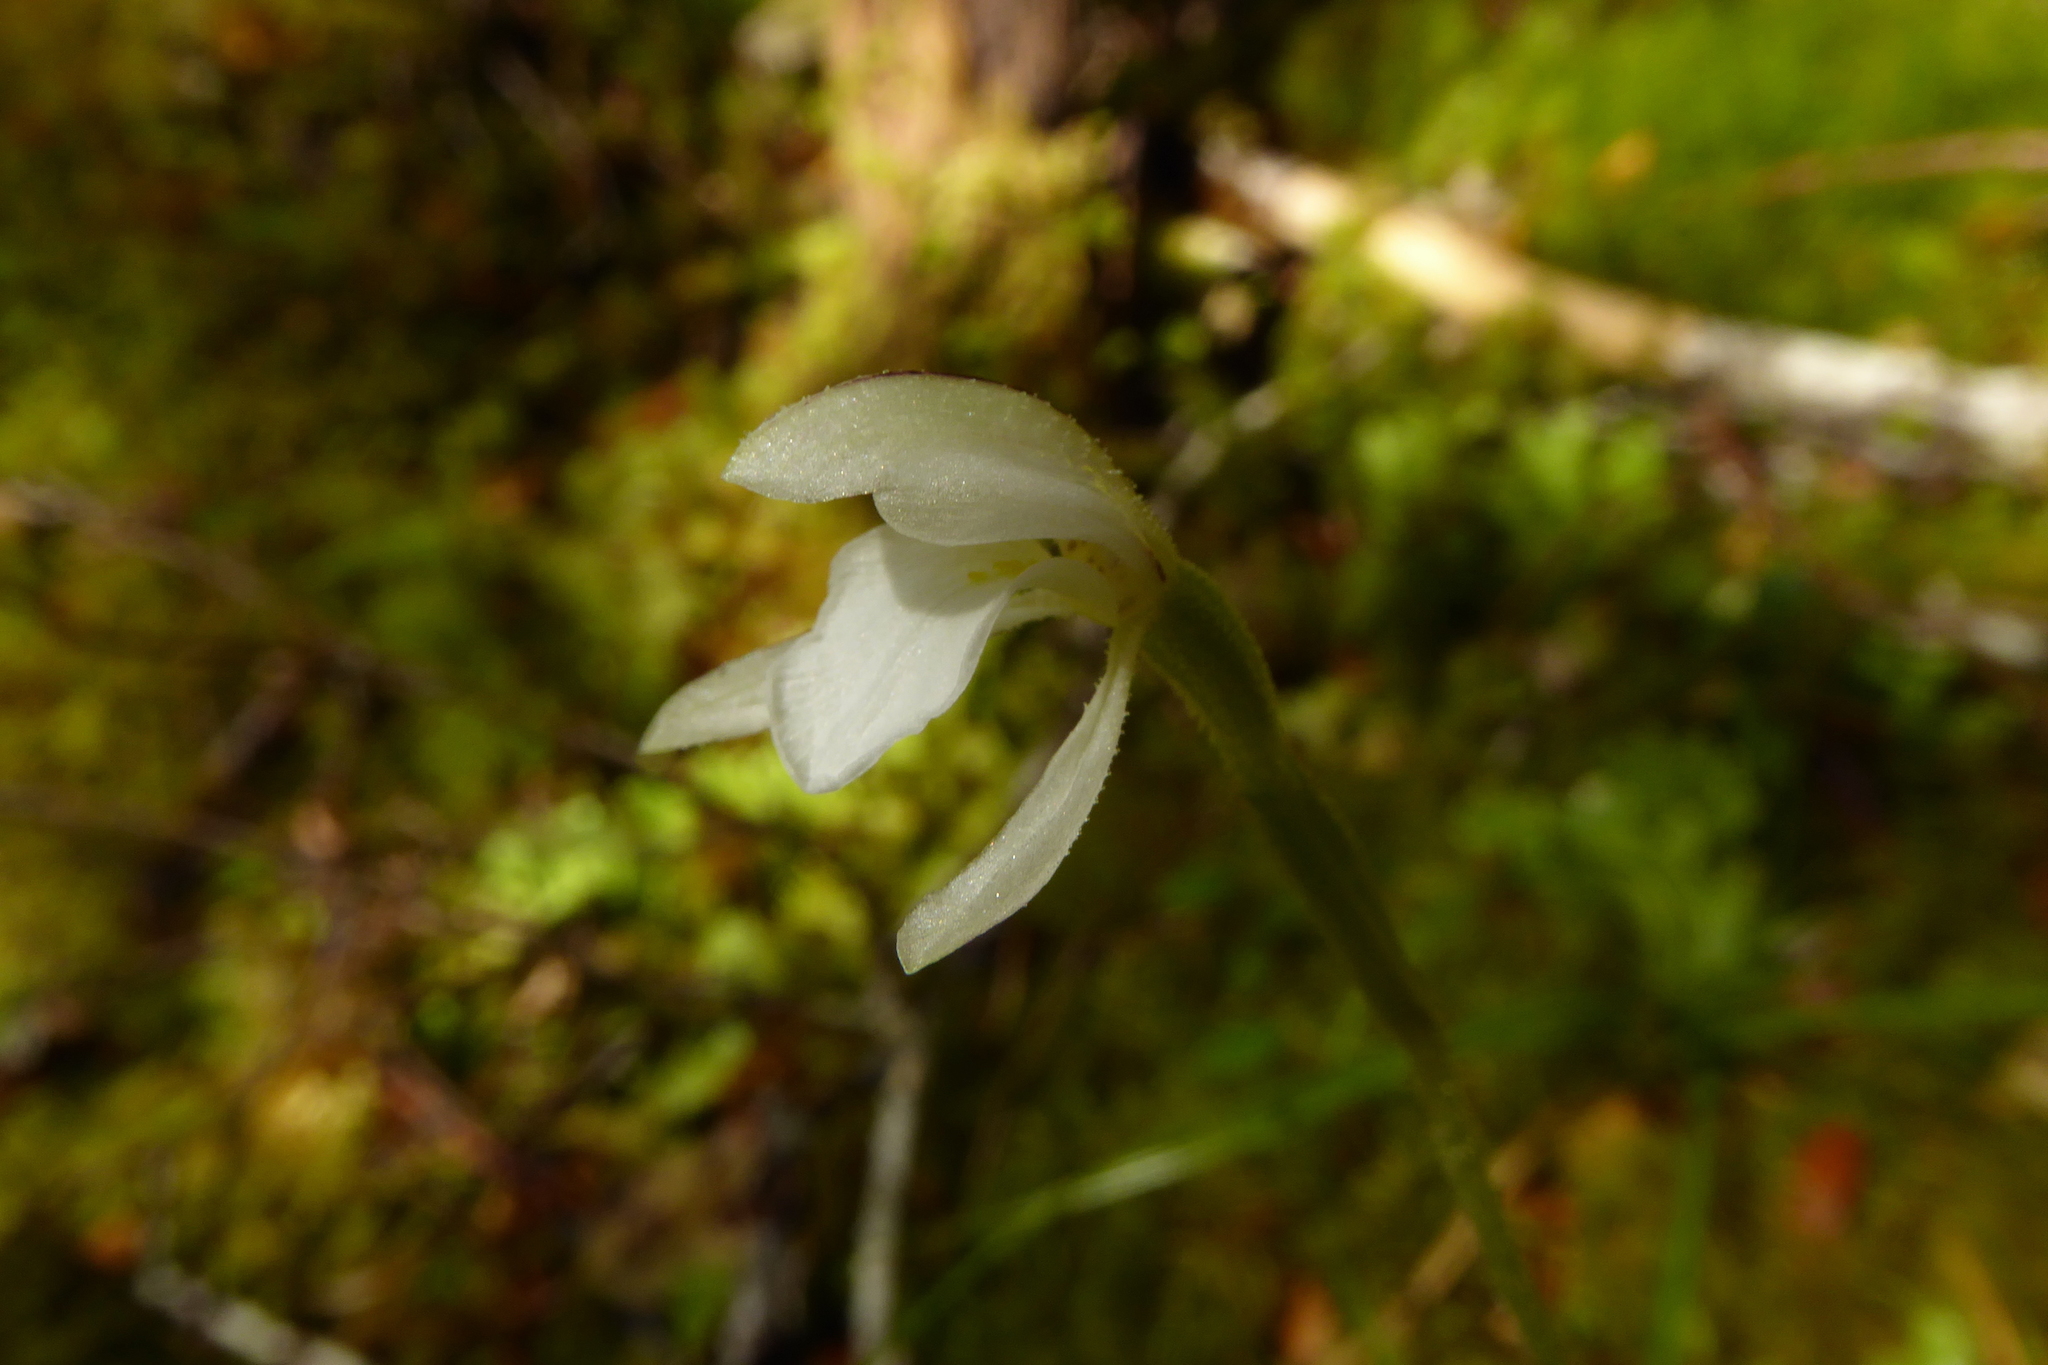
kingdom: Plantae
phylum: Tracheophyta
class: Liliopsida
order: Asparagales
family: Orchidaceae
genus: Aporostylis
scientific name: Aporostylis bifolia
